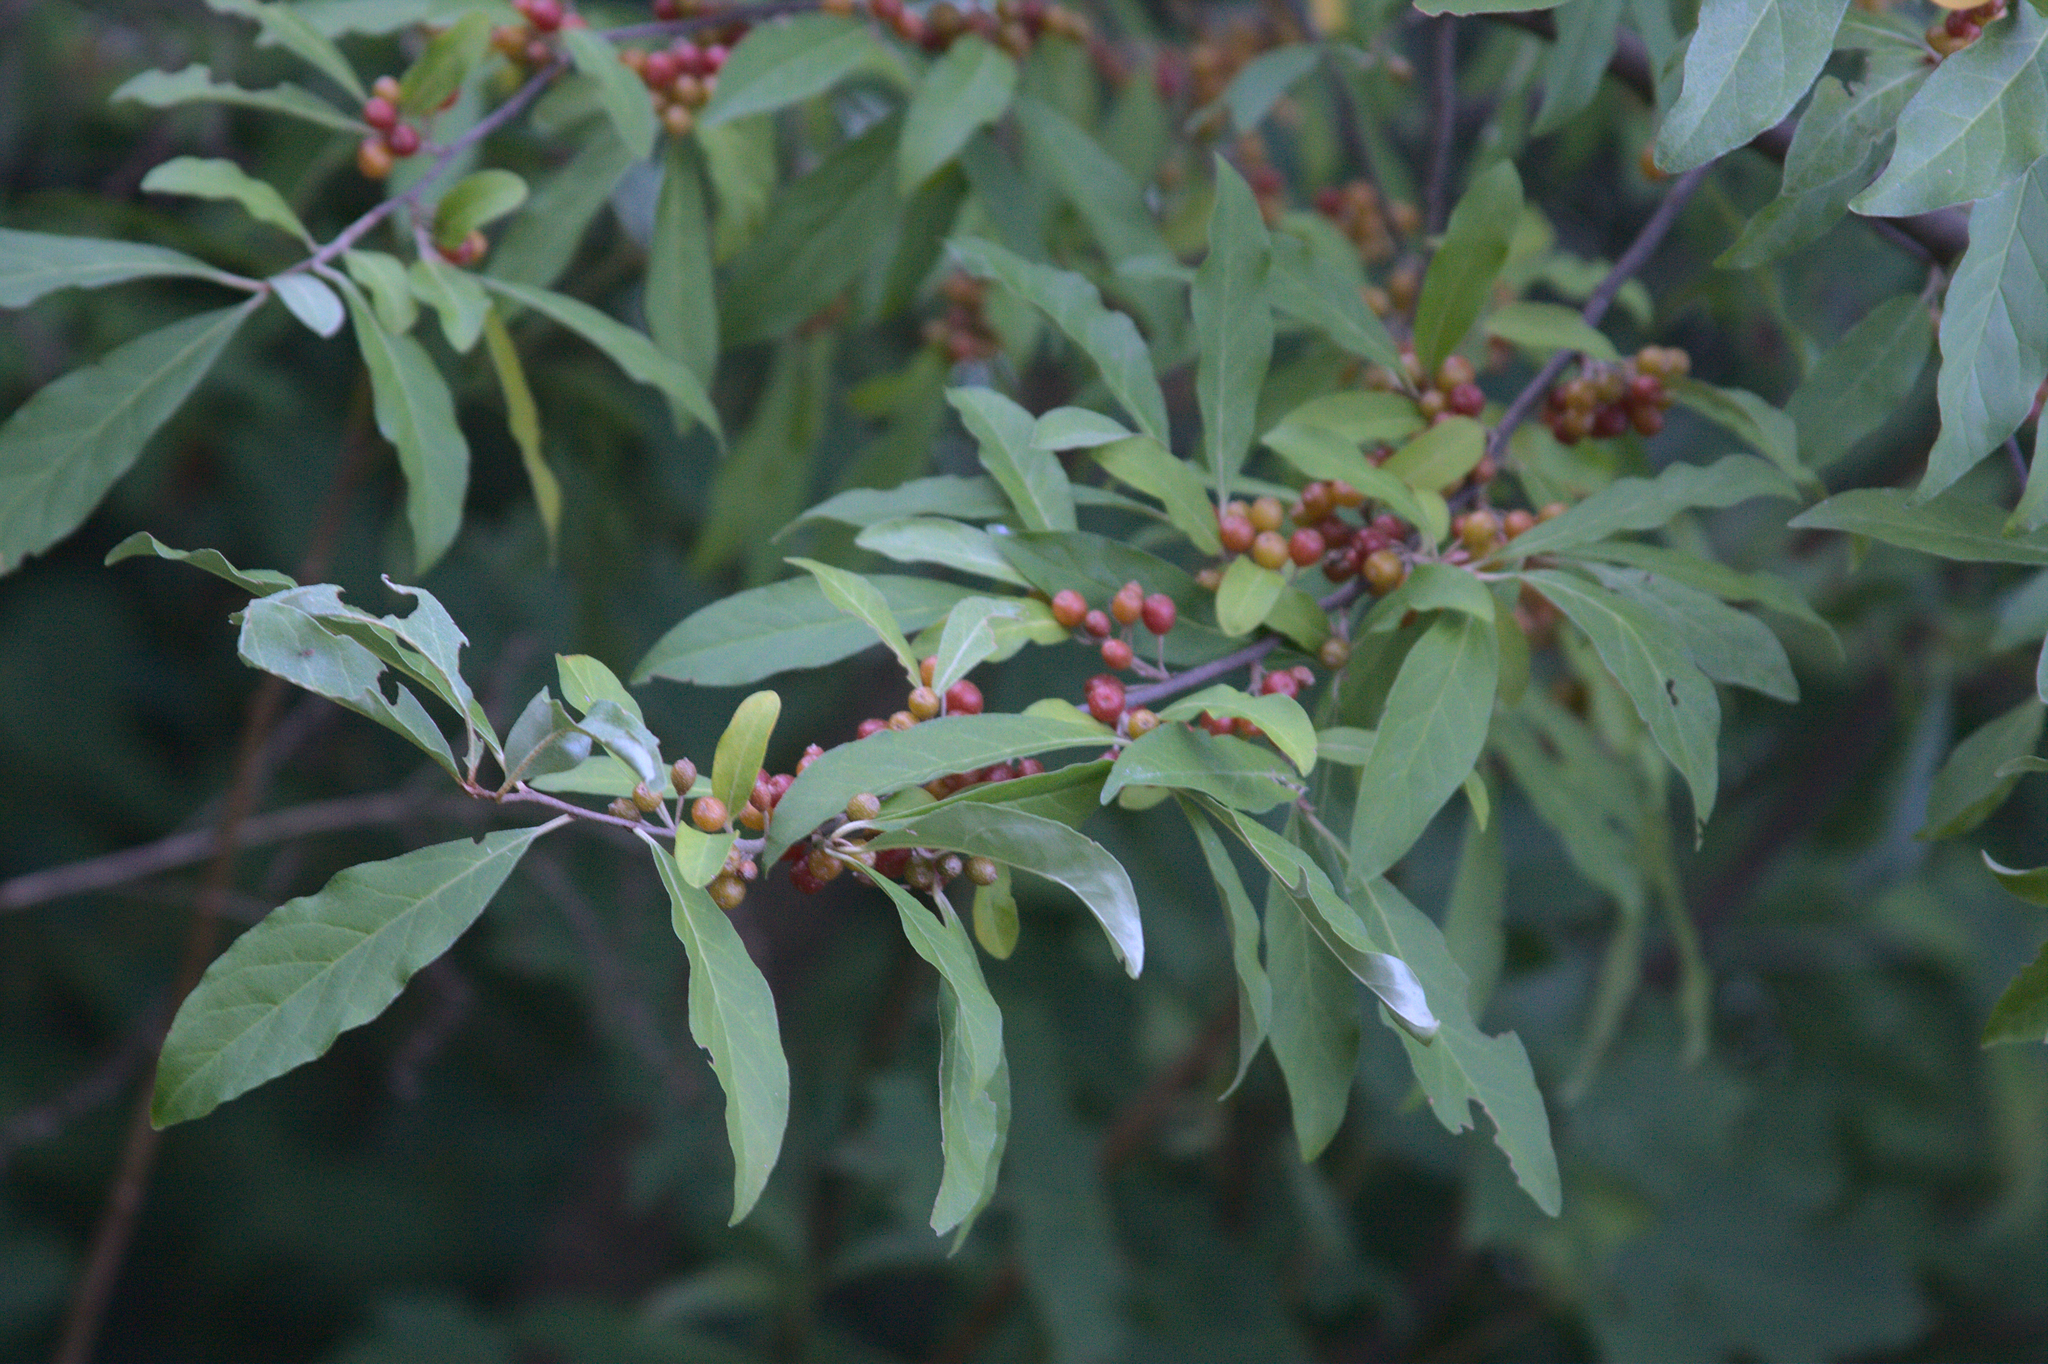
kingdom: Plantae
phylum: Tracheophyta
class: Magnoliopsida
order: Rosales
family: Elaeagnaceae
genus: Elaeagnus
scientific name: Elaeagnus umbellata
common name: Autumn olive
